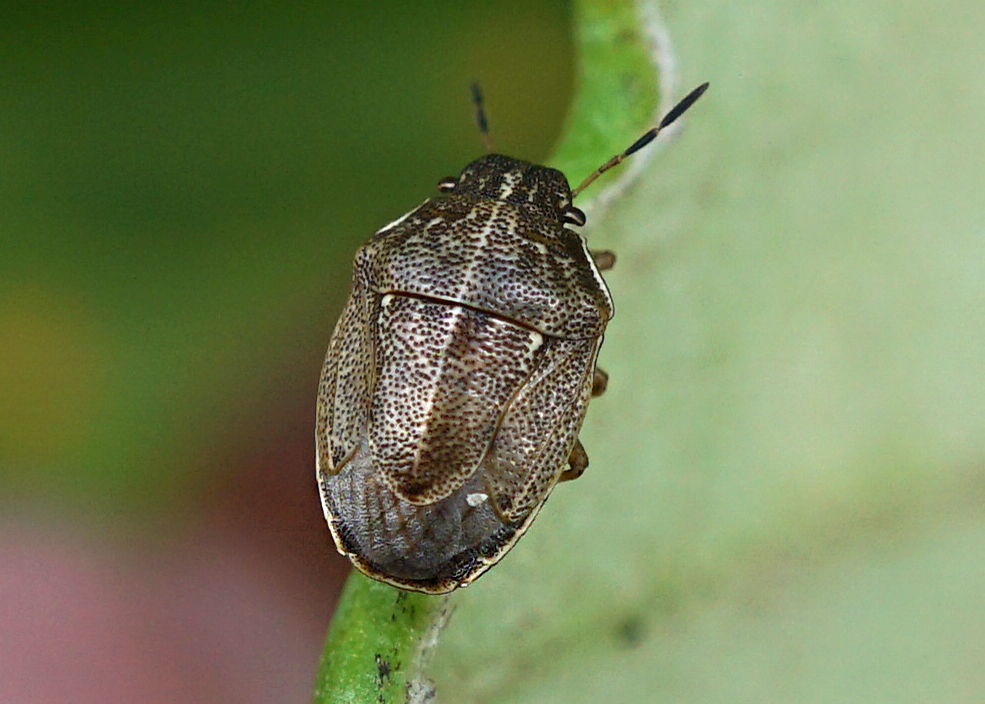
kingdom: Animalia
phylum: Arthropoda
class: Insecta
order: Hemiptera
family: Pentatomidae
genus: Neottiglossa
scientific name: Neottiglossa pusilla
